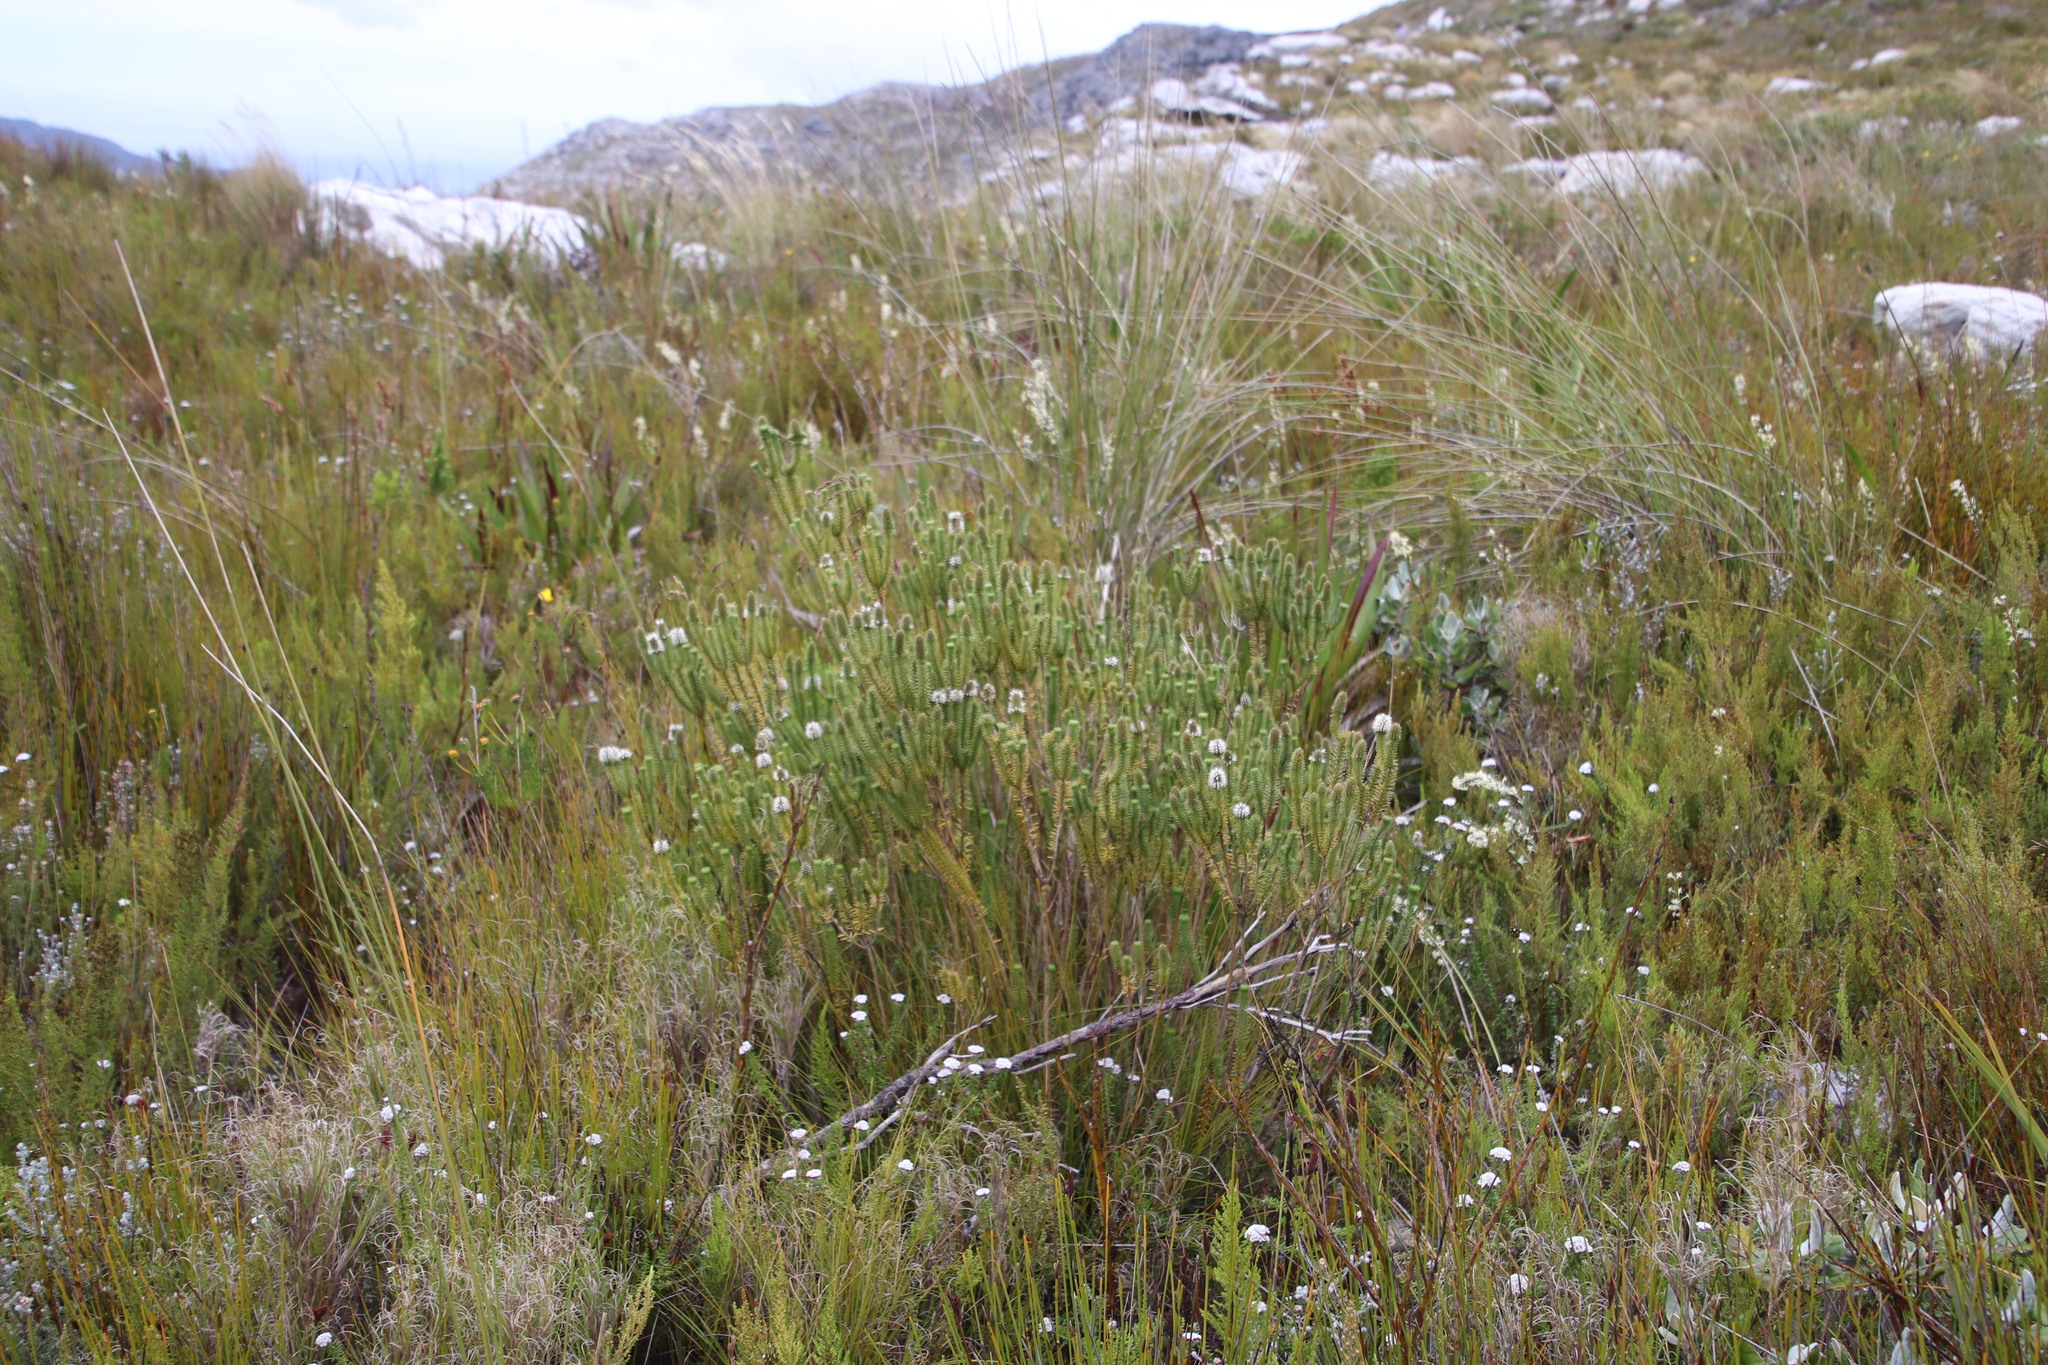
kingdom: Plantae
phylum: Tracheophyta
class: Magnoliopsida
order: Lamiales
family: Stilbaceae
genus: Stilbe
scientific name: Stilbe vestita
